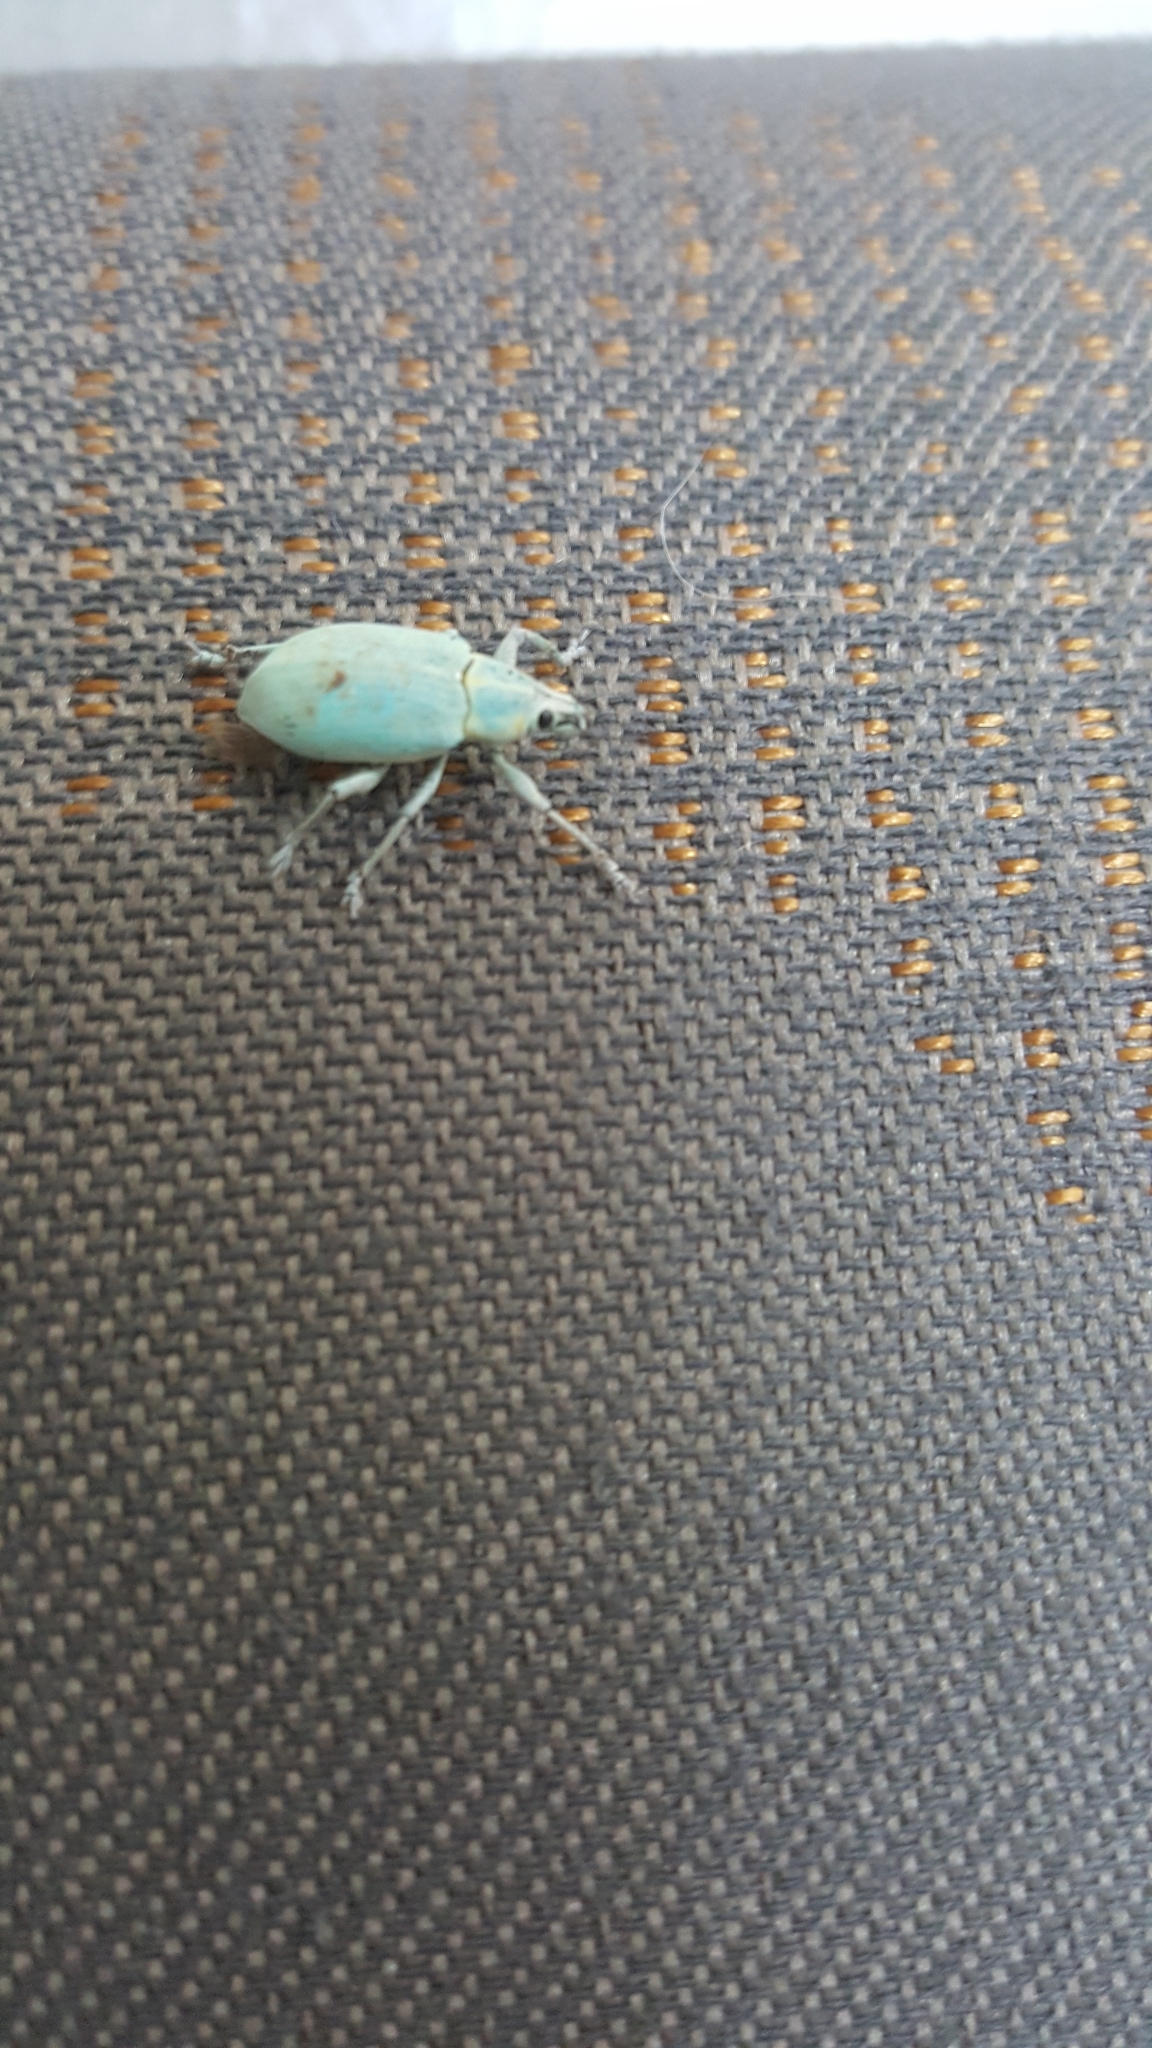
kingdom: Animalia
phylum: Arthropoda
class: Insecta
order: Coleoptera
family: Curculionidae
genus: Pachnaeus
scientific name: Pachnaeus litus
